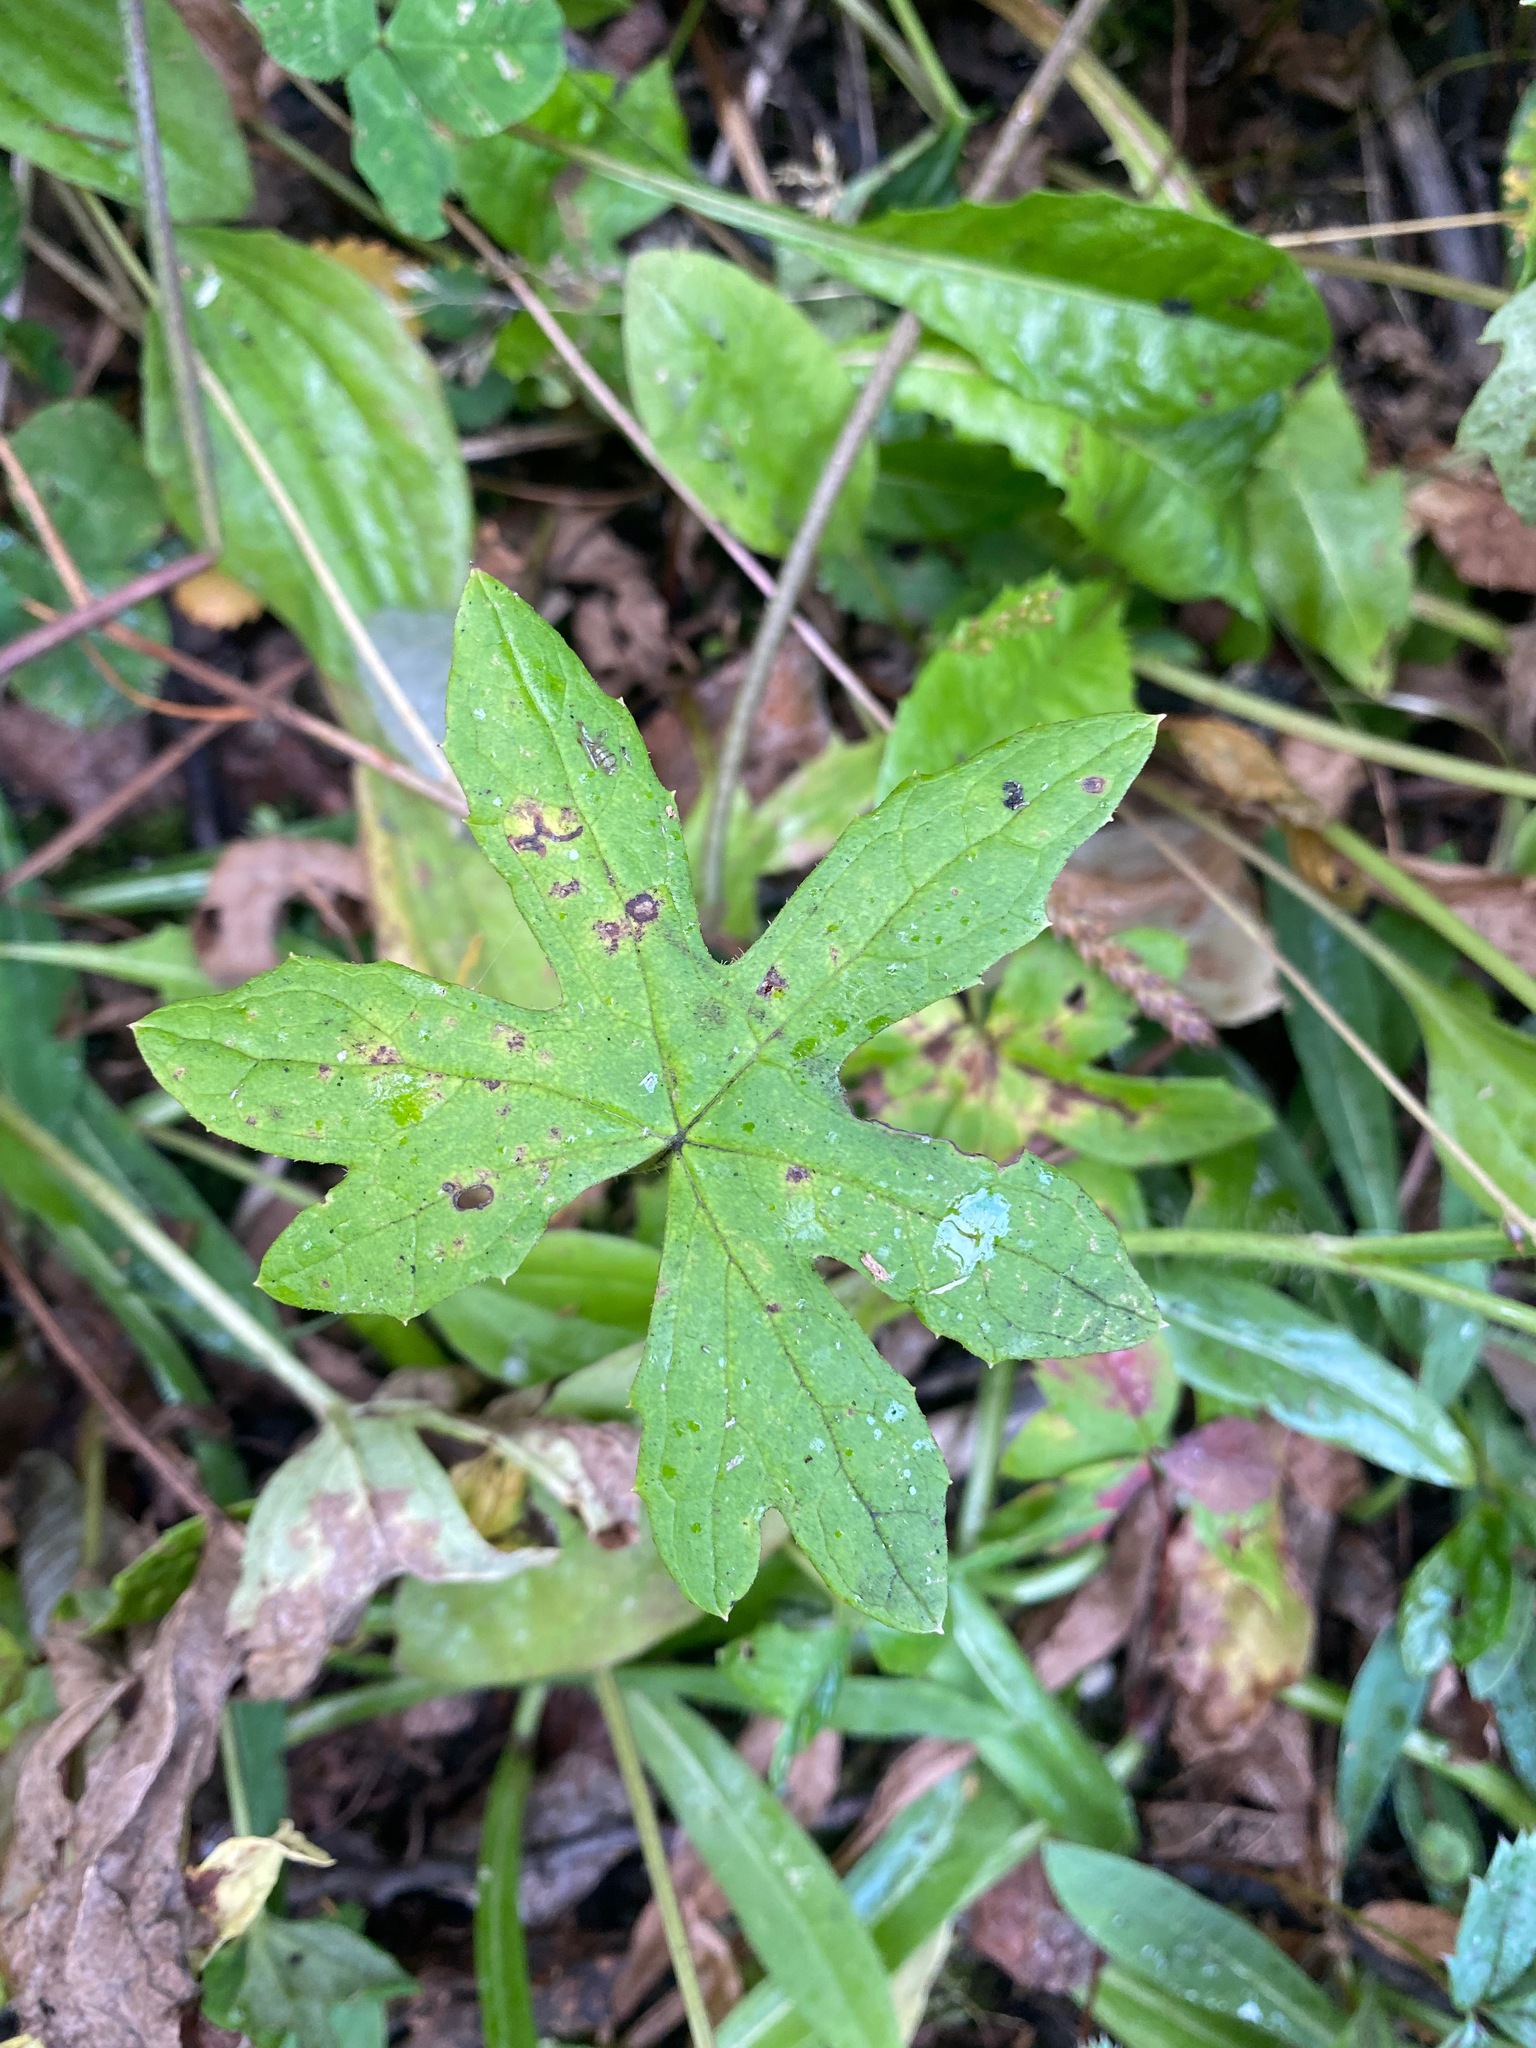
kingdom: Plantae
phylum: Tracheophyta
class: Magnoliopsida
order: Asterales
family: Asteraceae
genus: Petasites
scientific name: Petasites frigidus
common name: Arctic butterbur
